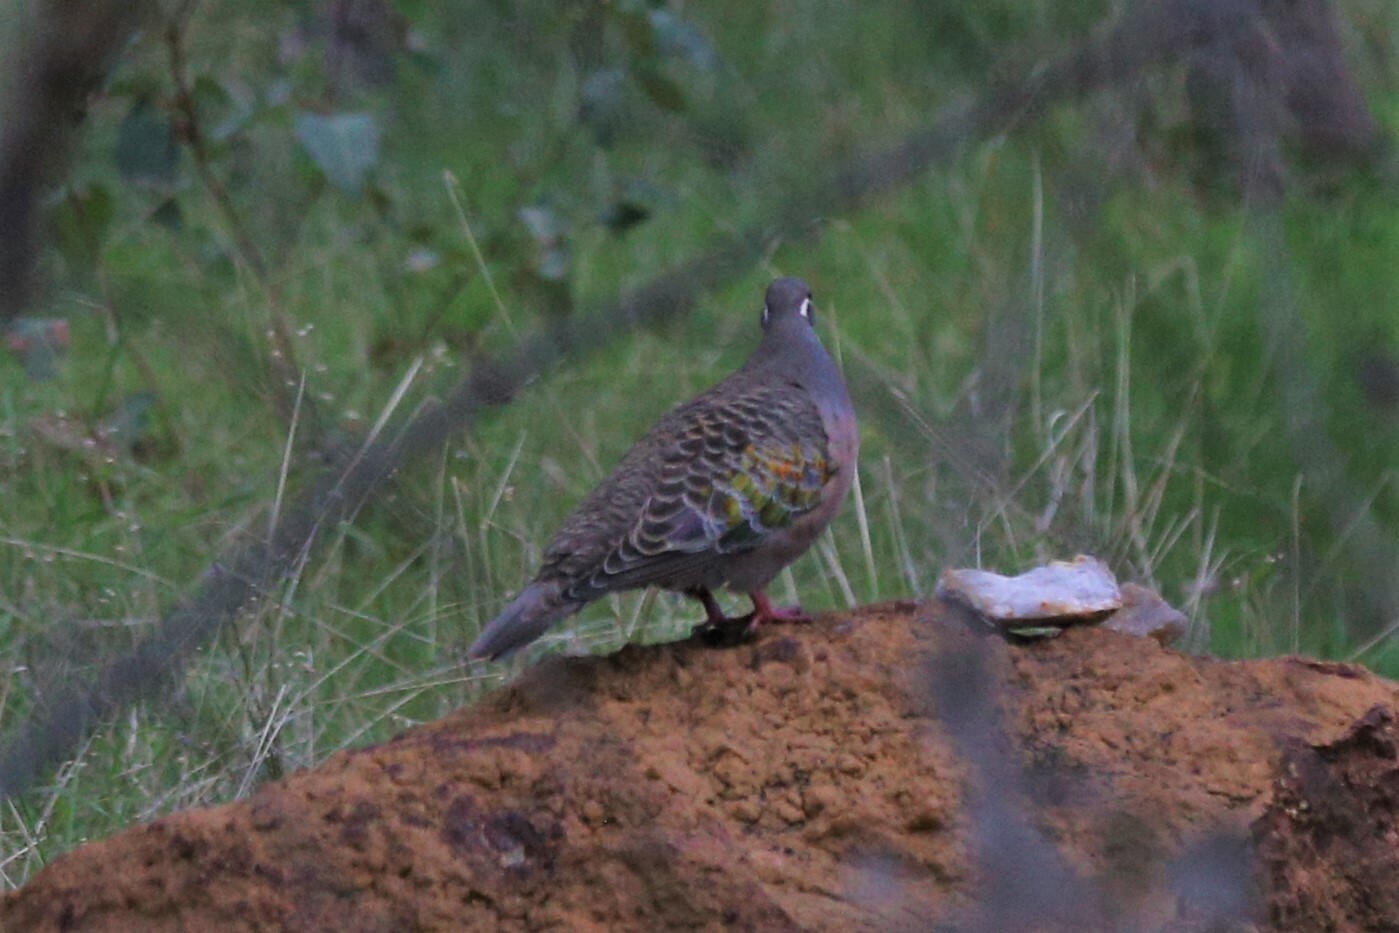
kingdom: Animalia
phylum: Chordata
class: Aves
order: Columbiformes
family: Columbidae
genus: Phaps
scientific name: Phaps chalcoptera
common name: Common bronzewing
